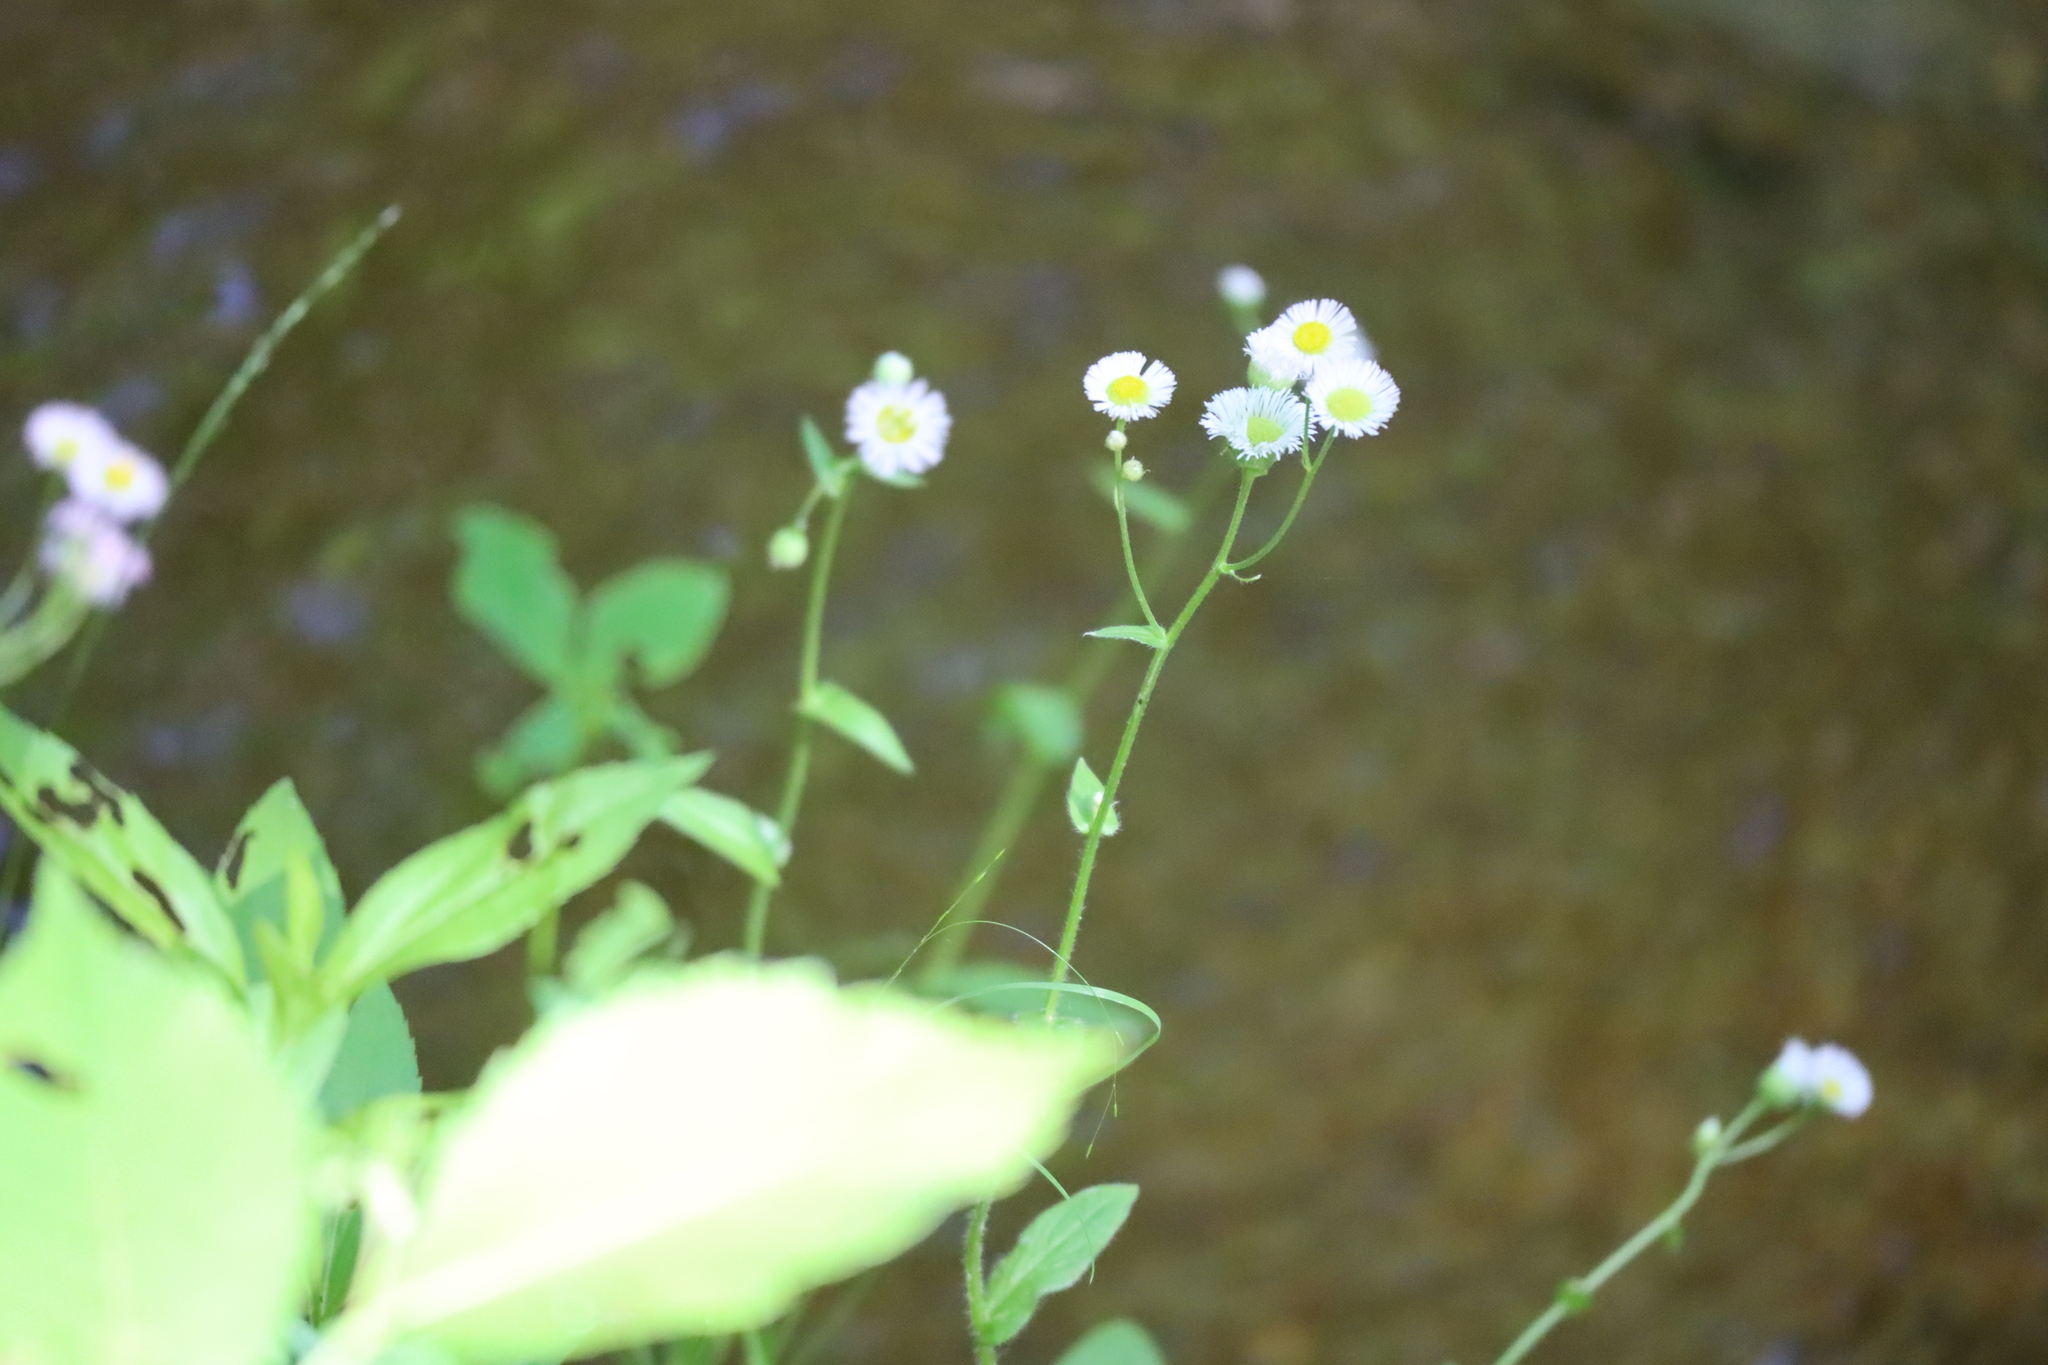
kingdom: Plantae
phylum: Tracheophyta
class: Magnoliopsida
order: Asterales
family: Asteraceae
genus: Erigeron
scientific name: Erigeron philadelphicus
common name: Robin's-plantain
